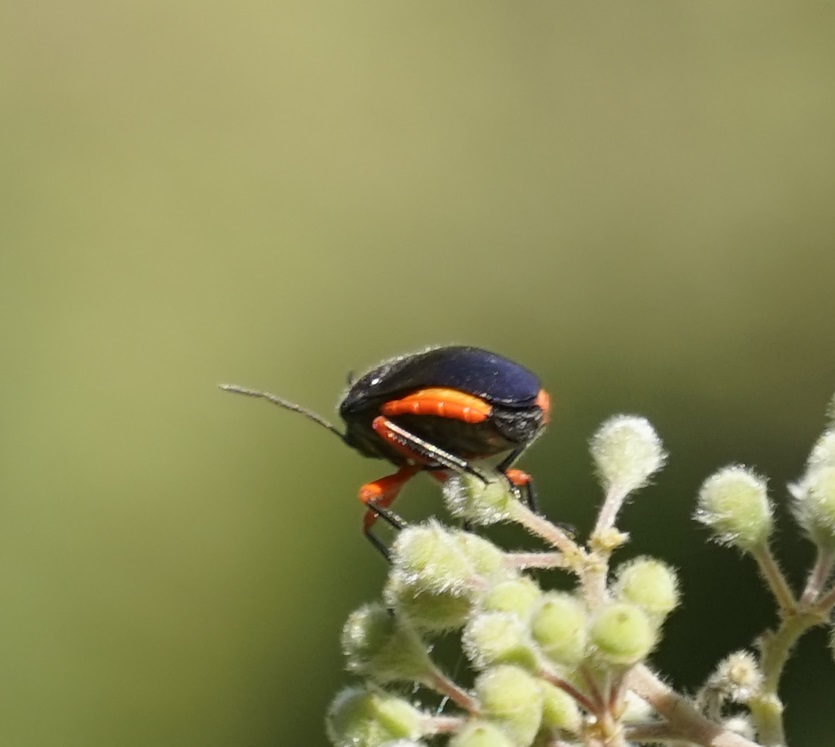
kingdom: Animalia
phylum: Arthropoda
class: Insecta
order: Hemiptera
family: Scutelleridae
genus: Lampromicra
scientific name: Lampromicra
